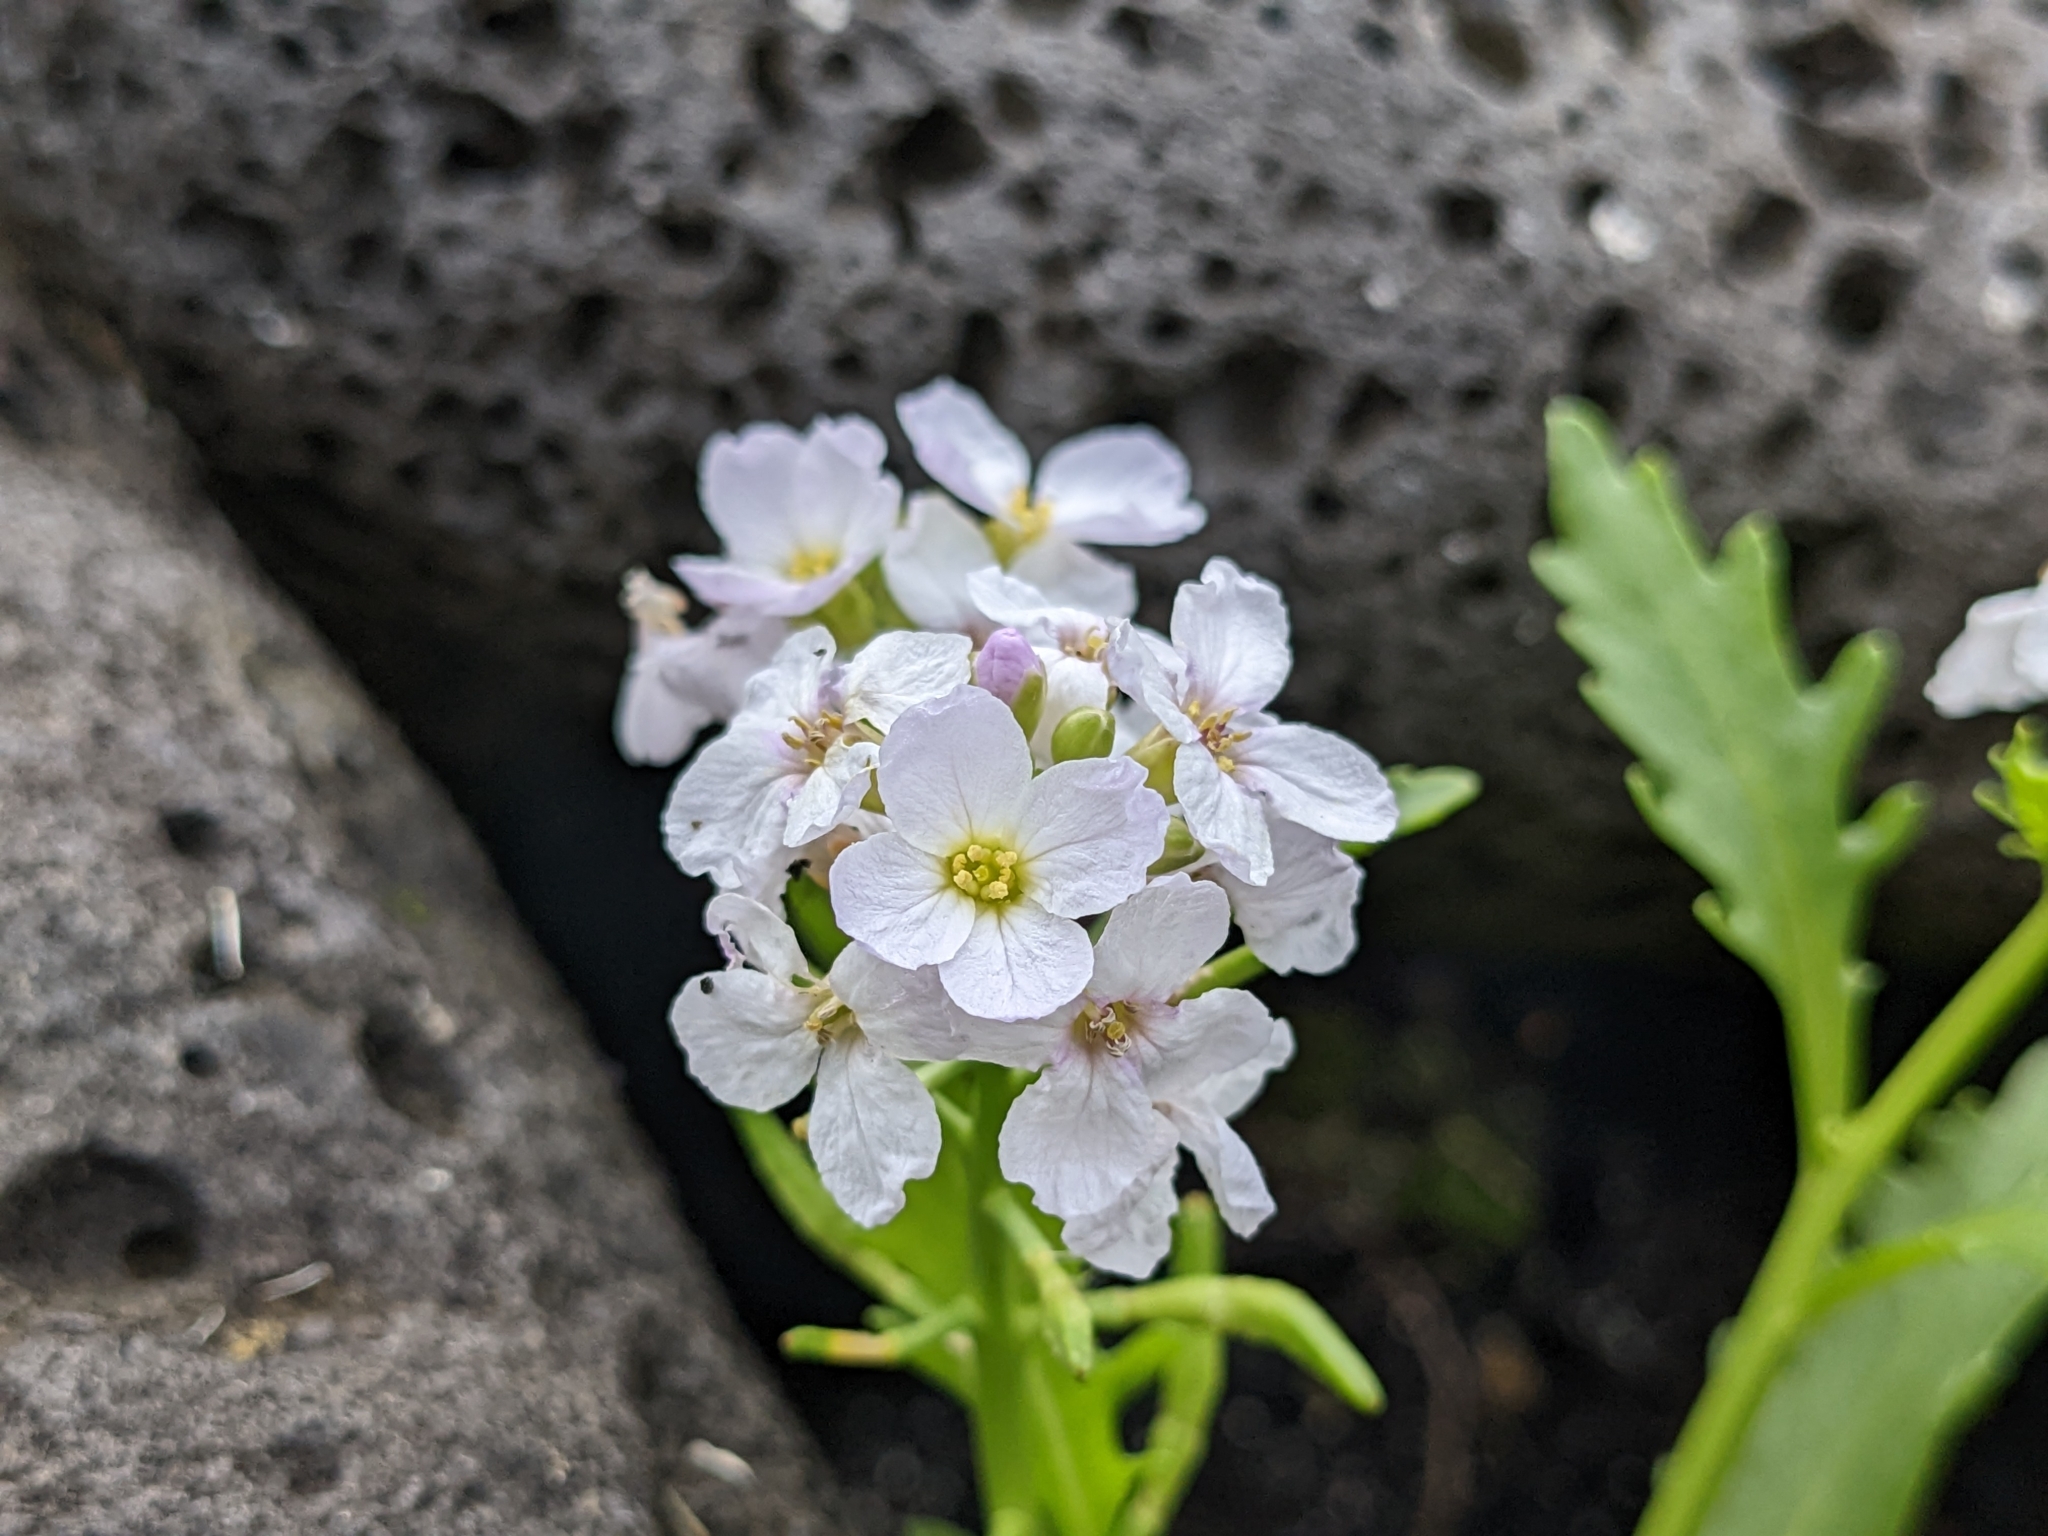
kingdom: Plantae
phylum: Tracheophyta
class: Magnoliopsida
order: Brassicales
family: Brassicaceae
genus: Cakile
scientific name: Cakile arctica
